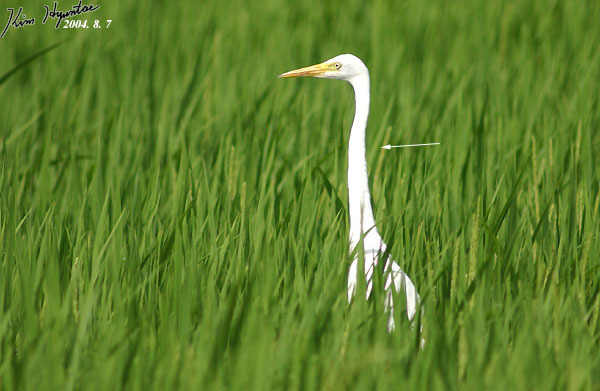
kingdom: Animalia
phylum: Chordata
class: Aves
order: Pelecaniformes
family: Ardeidae
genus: Egretta
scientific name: Egretta intermedia
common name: Intermediate egret
